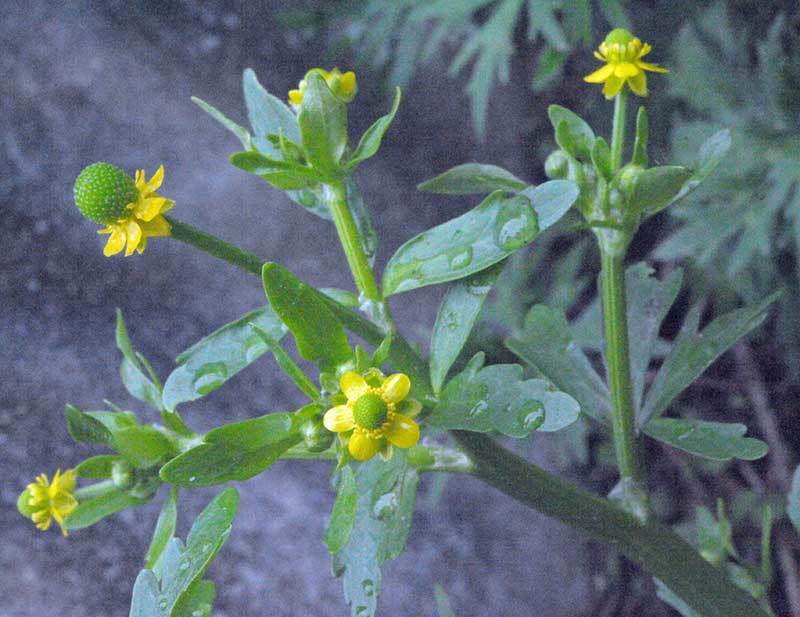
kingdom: Plantae
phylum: Tracheophyta
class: Magnoliopsida
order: Ranunculales
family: Ranunculaceae
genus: Ranunculus
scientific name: Ranunculus abortivus
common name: Early wood buttercup
